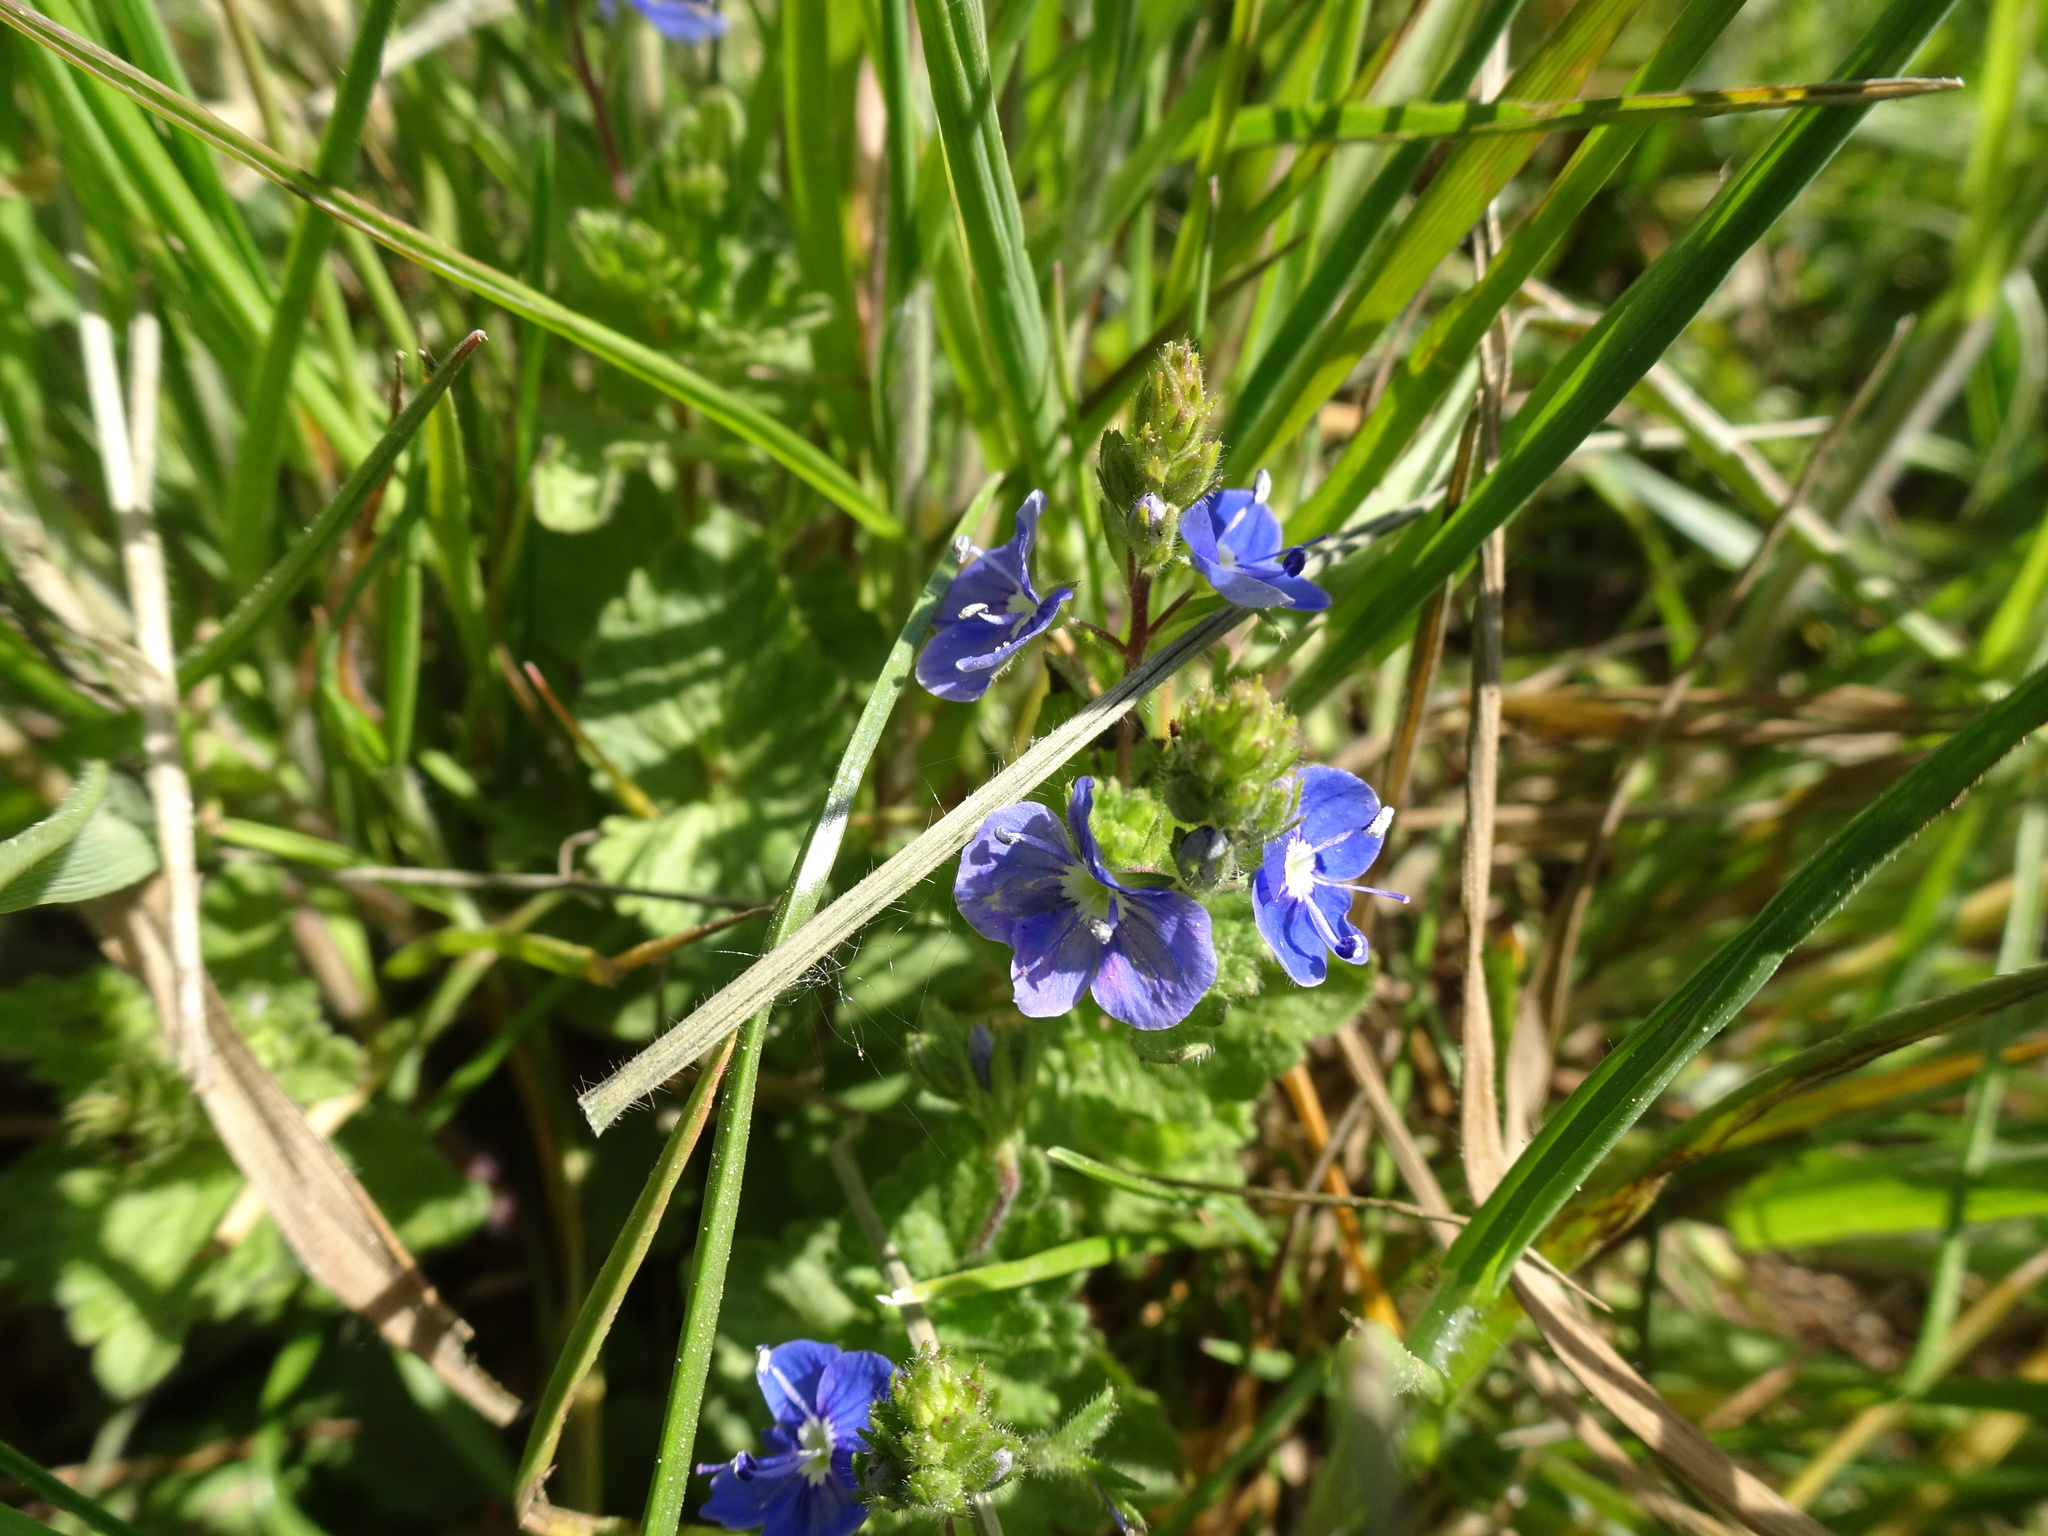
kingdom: Plantae
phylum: Tracheophyta
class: Magnoliopsida
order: Lamiales
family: Plantaginaceae
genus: Veronica
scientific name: Veronica chamaedrys
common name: Germander speedwell
